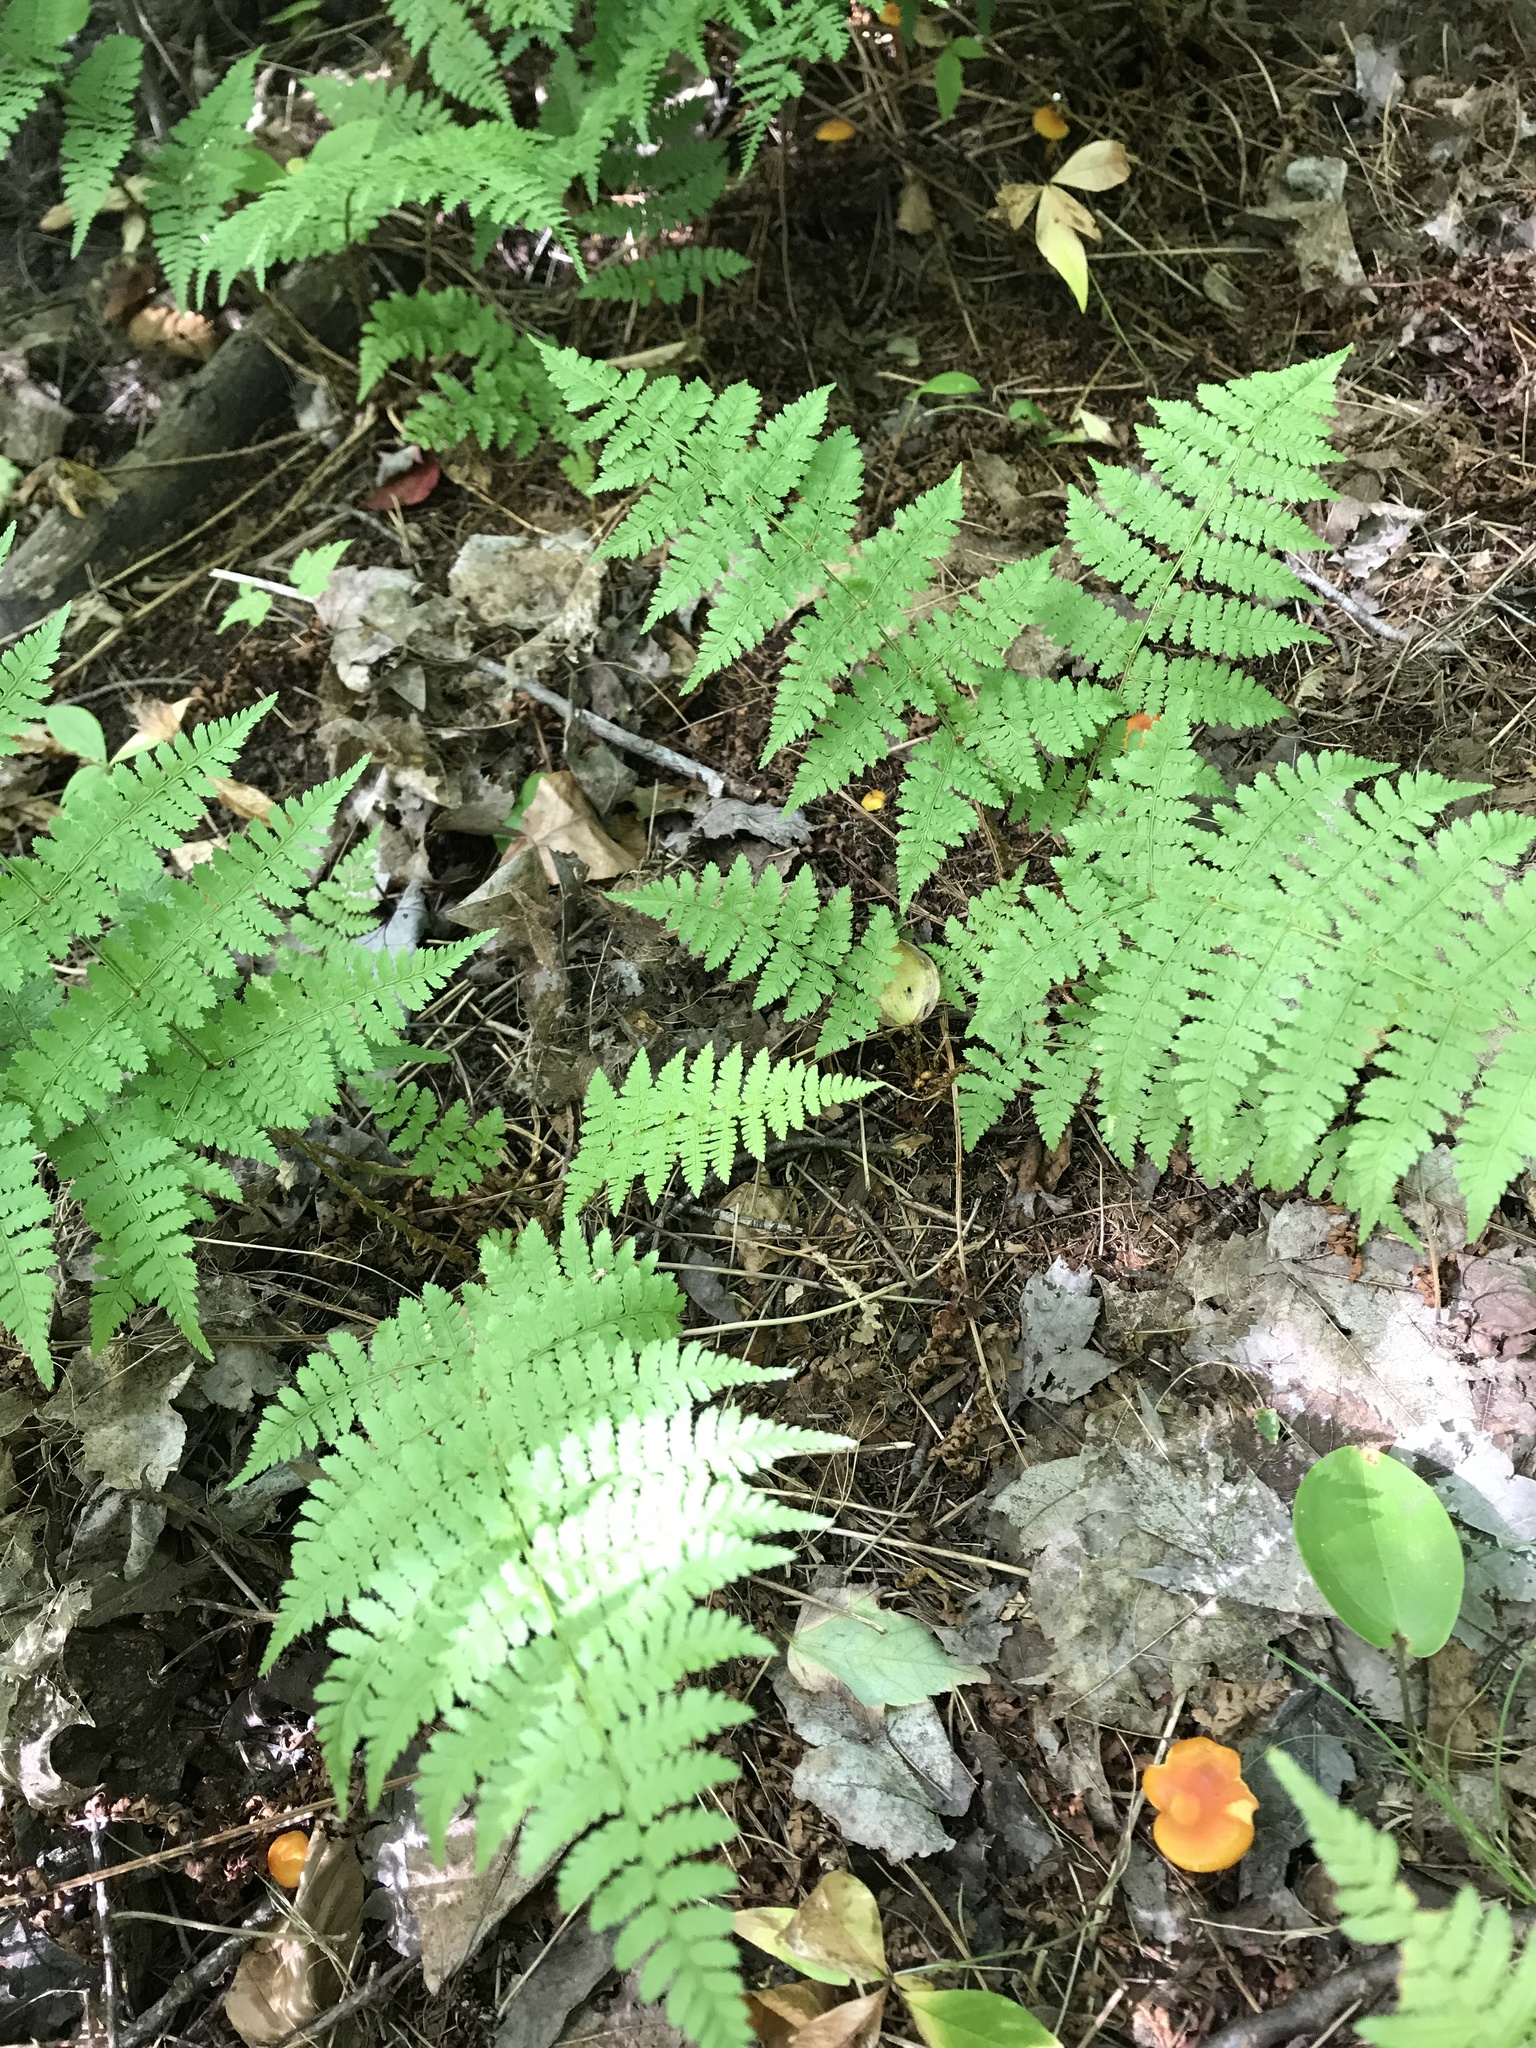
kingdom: Plantae
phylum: Tracheophyta
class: Polypodiopsida
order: Polypodiales
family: Dryopteridaceae
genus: Dryopteris
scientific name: Dryopteris intermedia
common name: Evergreen wood fern
